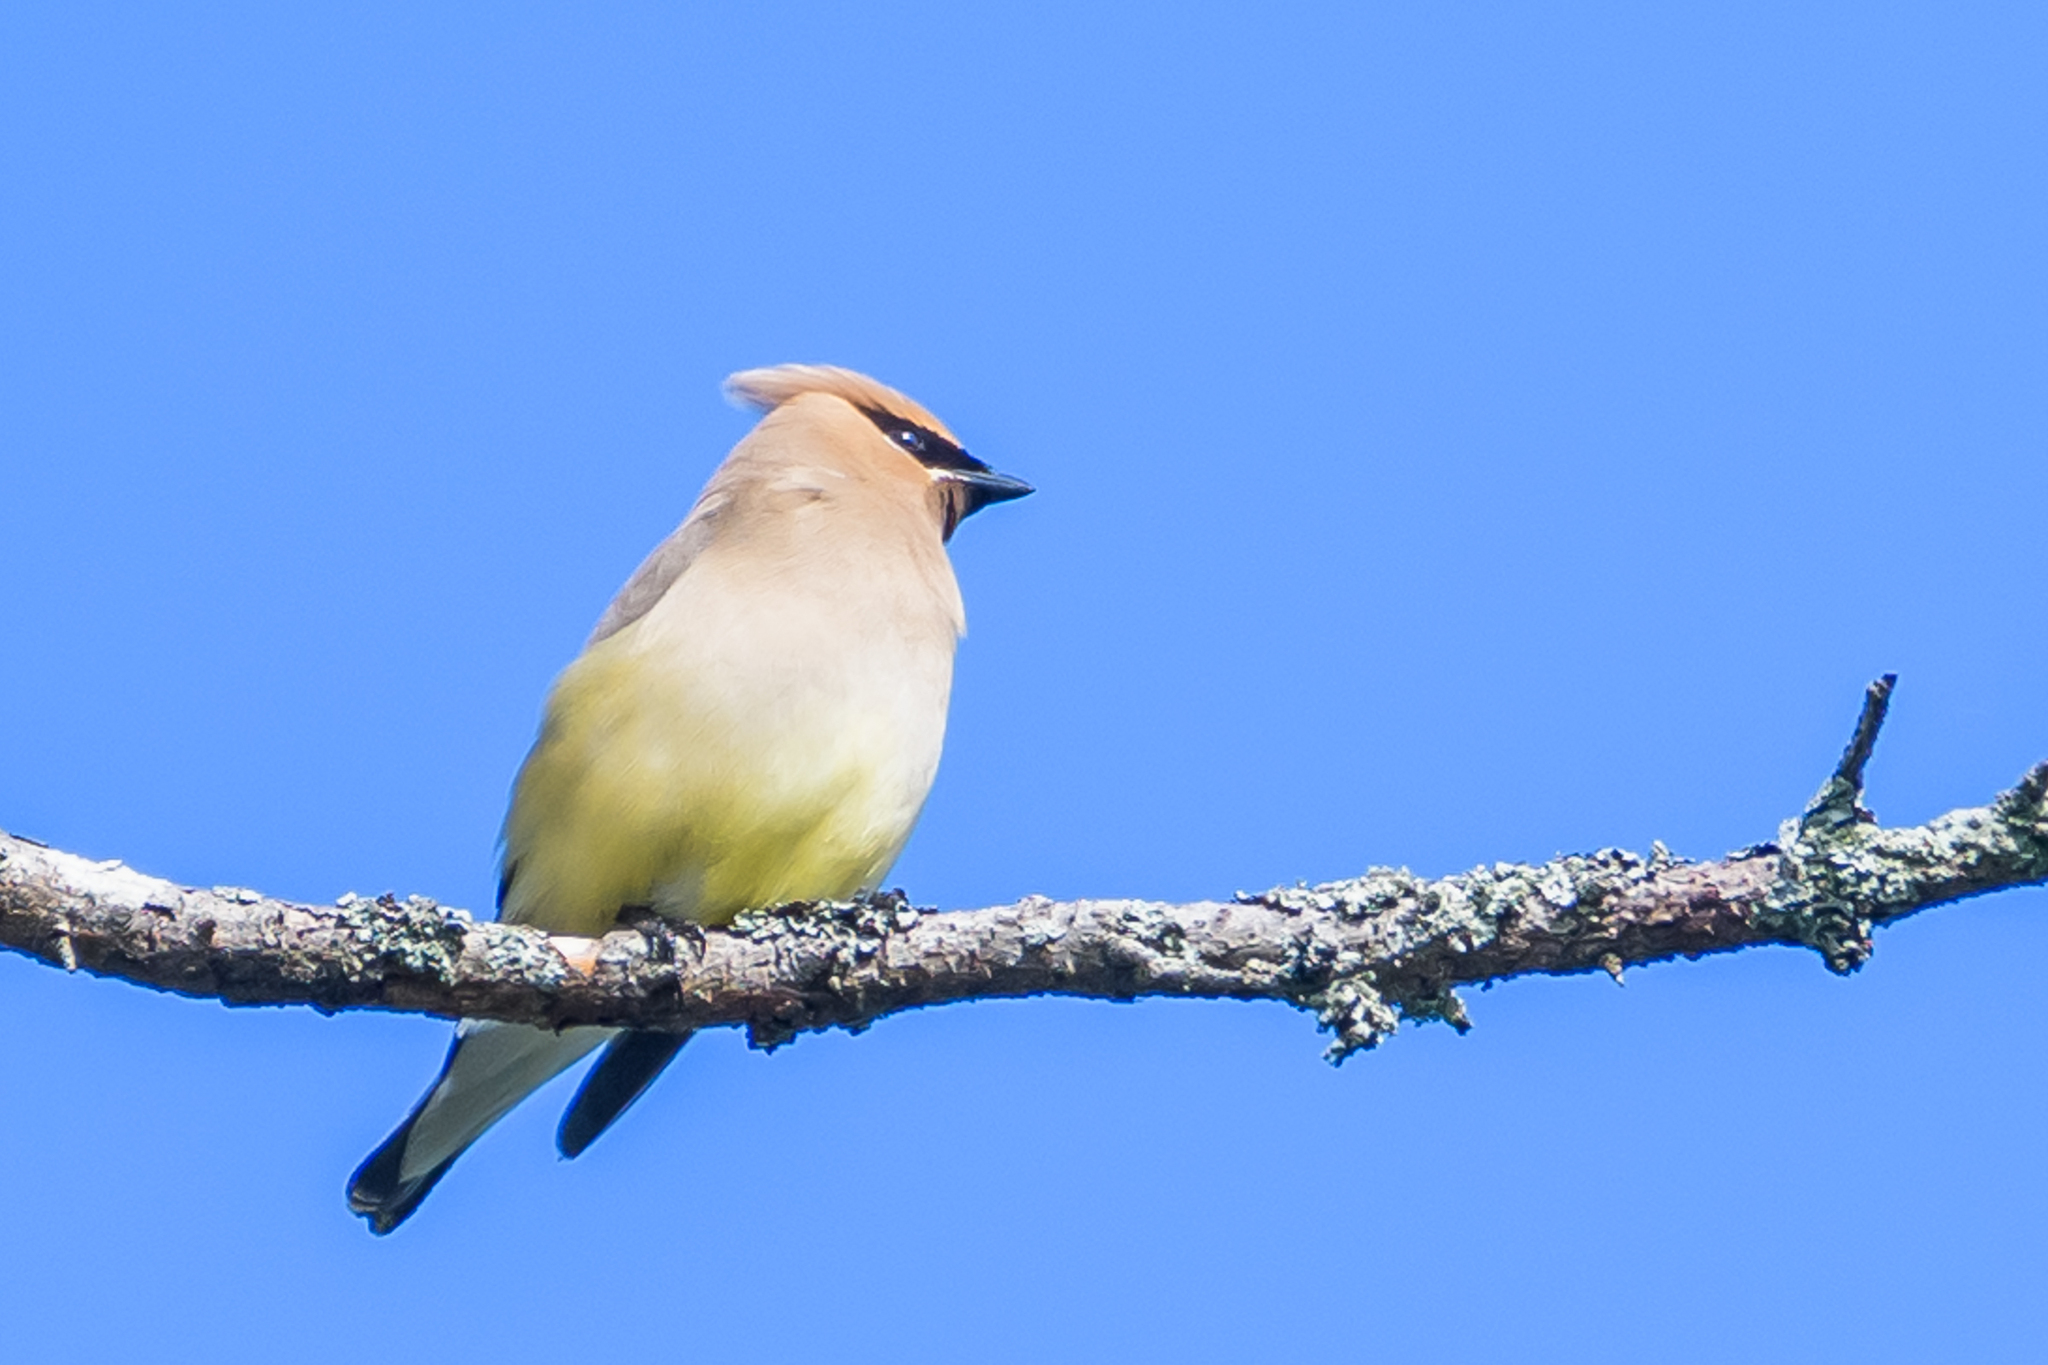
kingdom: Animalia
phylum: Chordata
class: Aves
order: Passeriformes
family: Bombycillidae
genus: Bombycilla
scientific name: Bombycilla cedrorum
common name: Cedar waxwing
